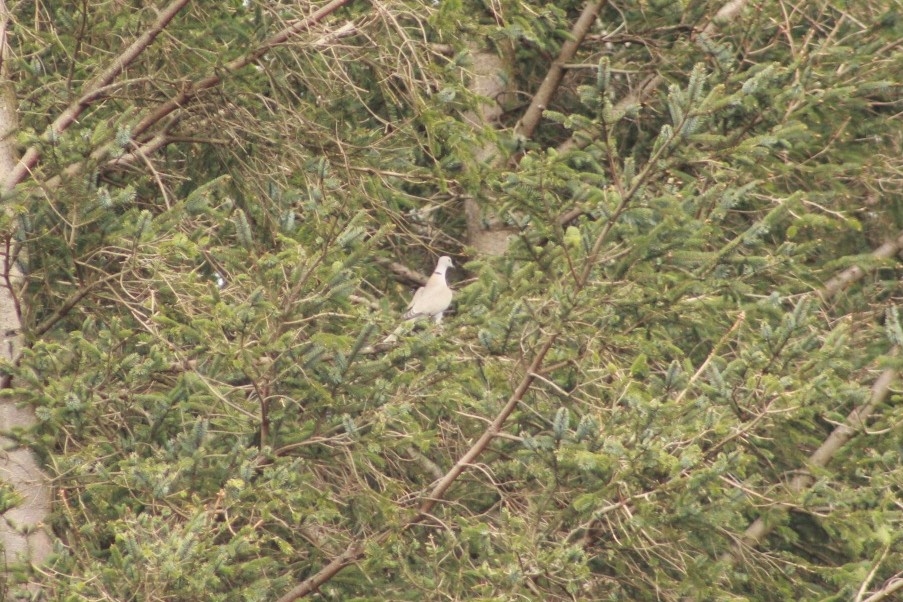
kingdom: Animalia
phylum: Chordata
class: Aves
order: Columbiformes
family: Columbidae
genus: Streptopelia
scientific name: Streptopelia decaocto
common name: Eurasian collared dove
